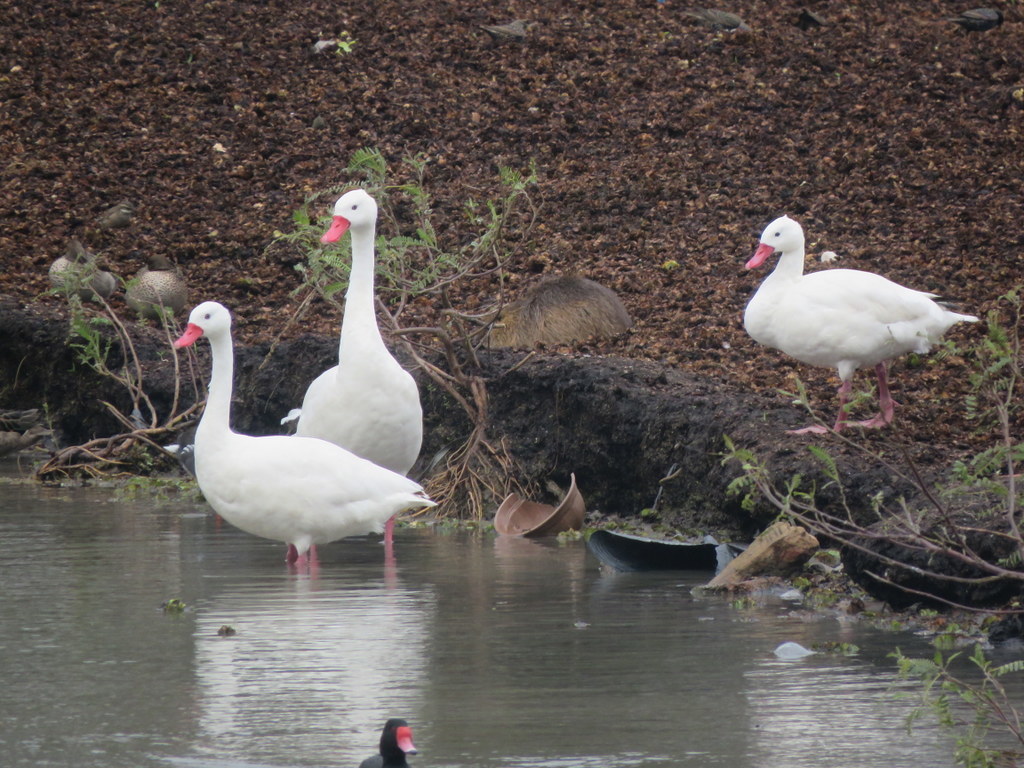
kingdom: Animalia
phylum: Chordata
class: Aves
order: Anseriformes
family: Anatidae
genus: Coscoroba
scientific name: Coscoroba coscoroba
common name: Coscoroba swan
